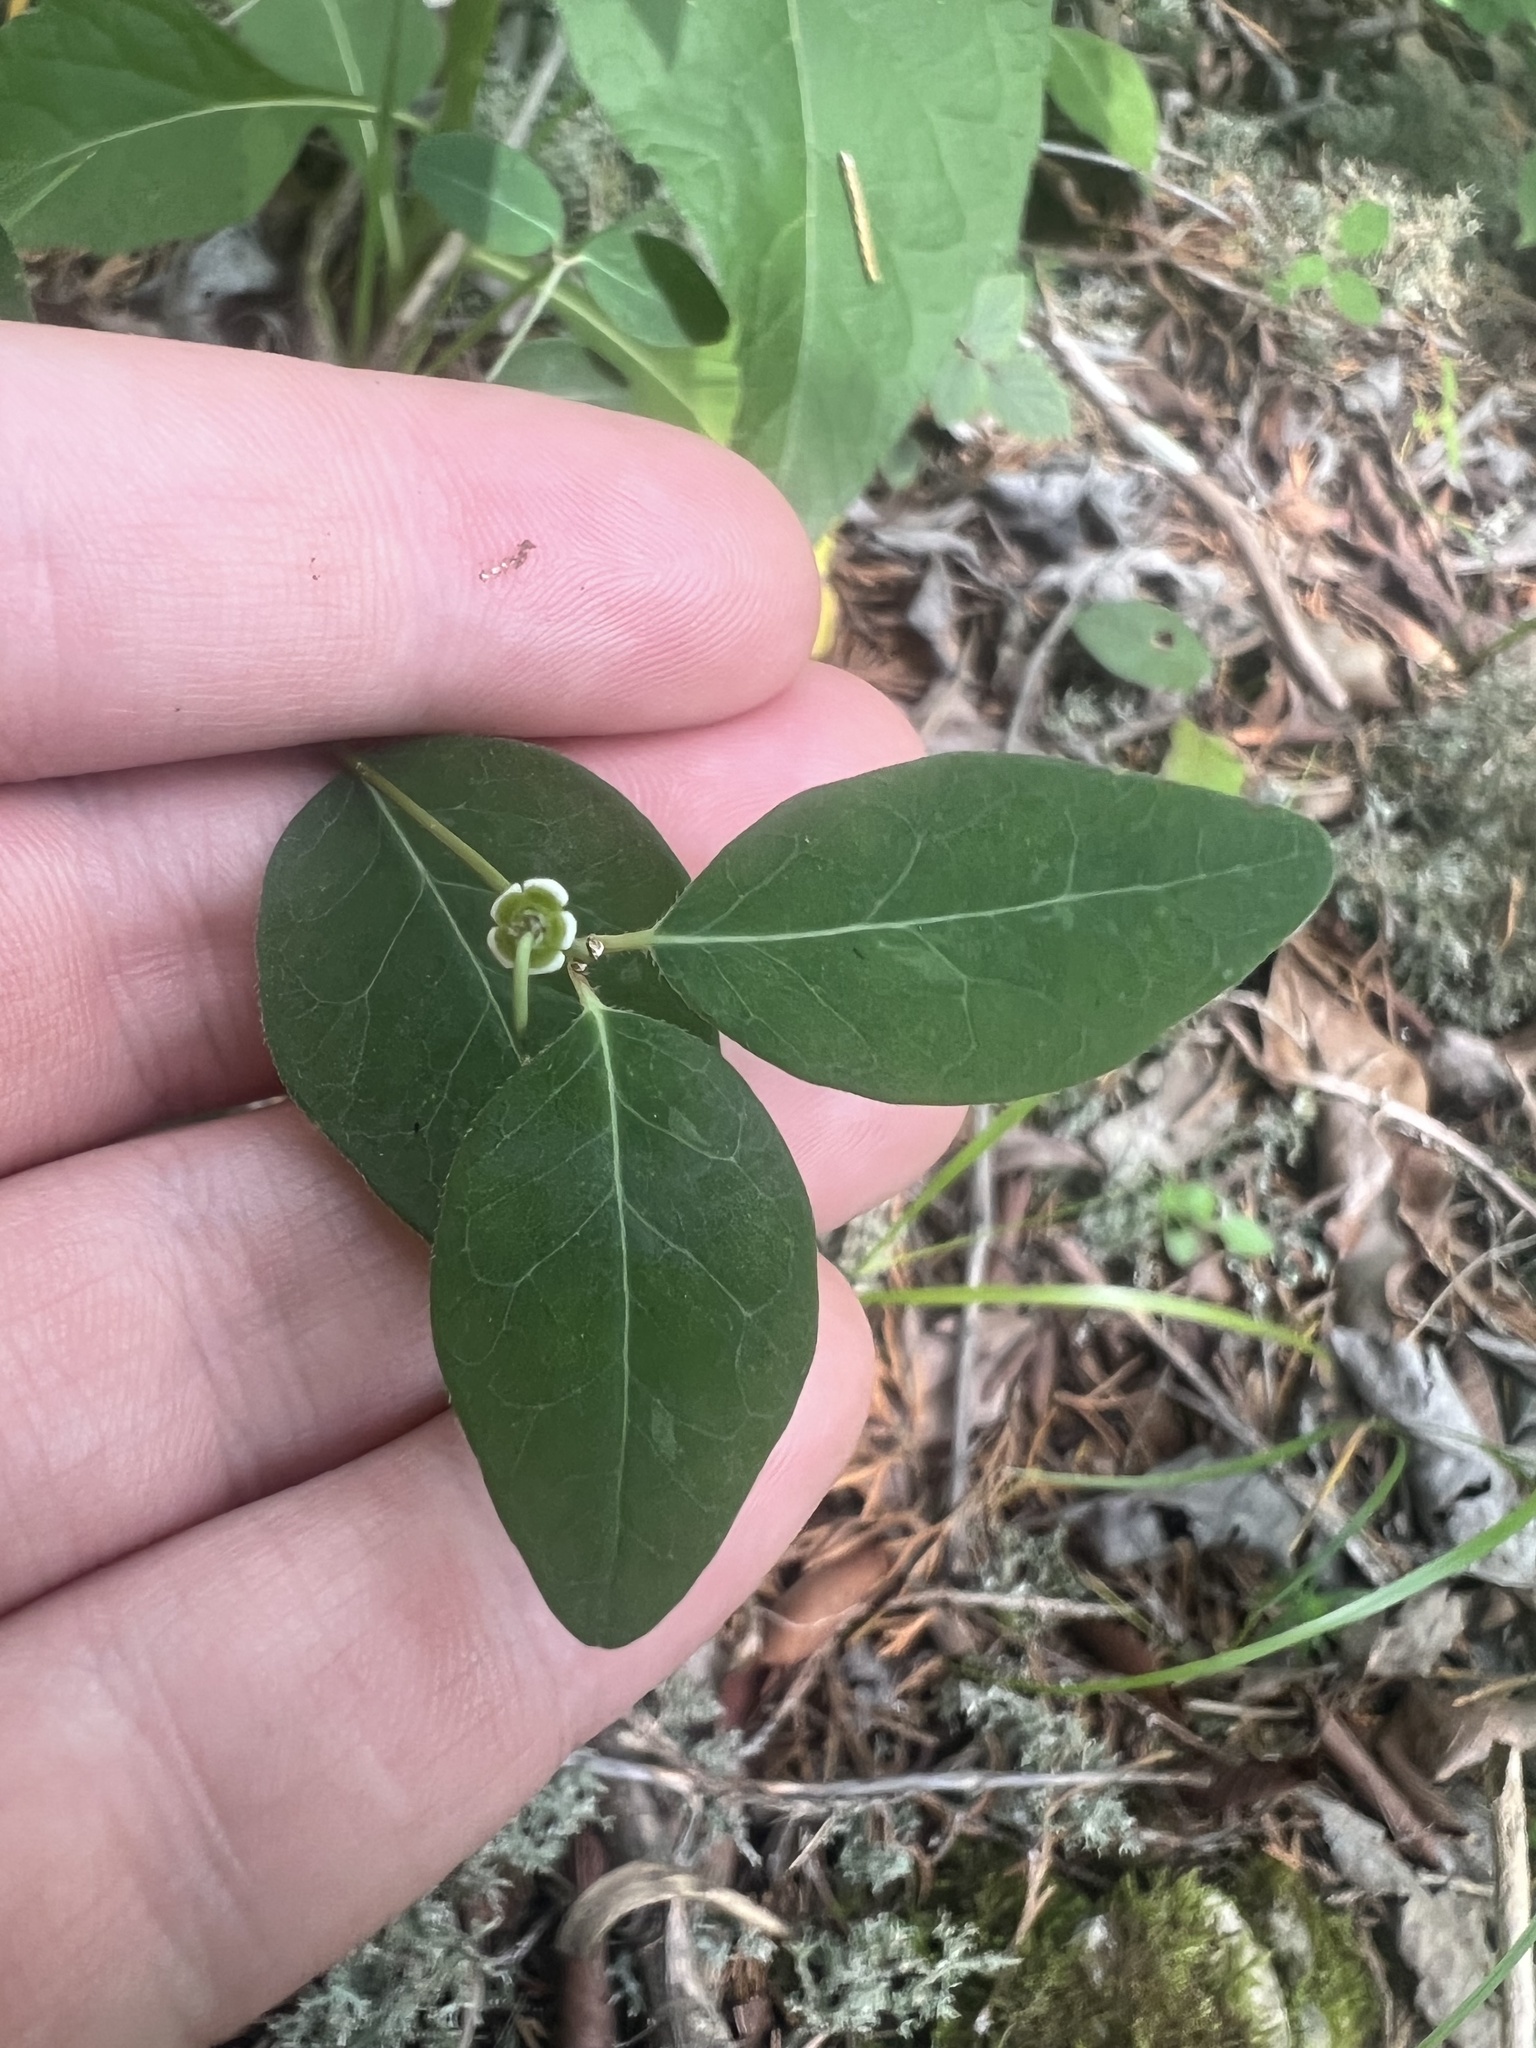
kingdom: Plantae
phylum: Tracheophyta
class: Magnoliopsida
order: Malpighiales
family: Euphorbiaceae
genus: Euphorbia
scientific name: Euphorbia mercurialina
